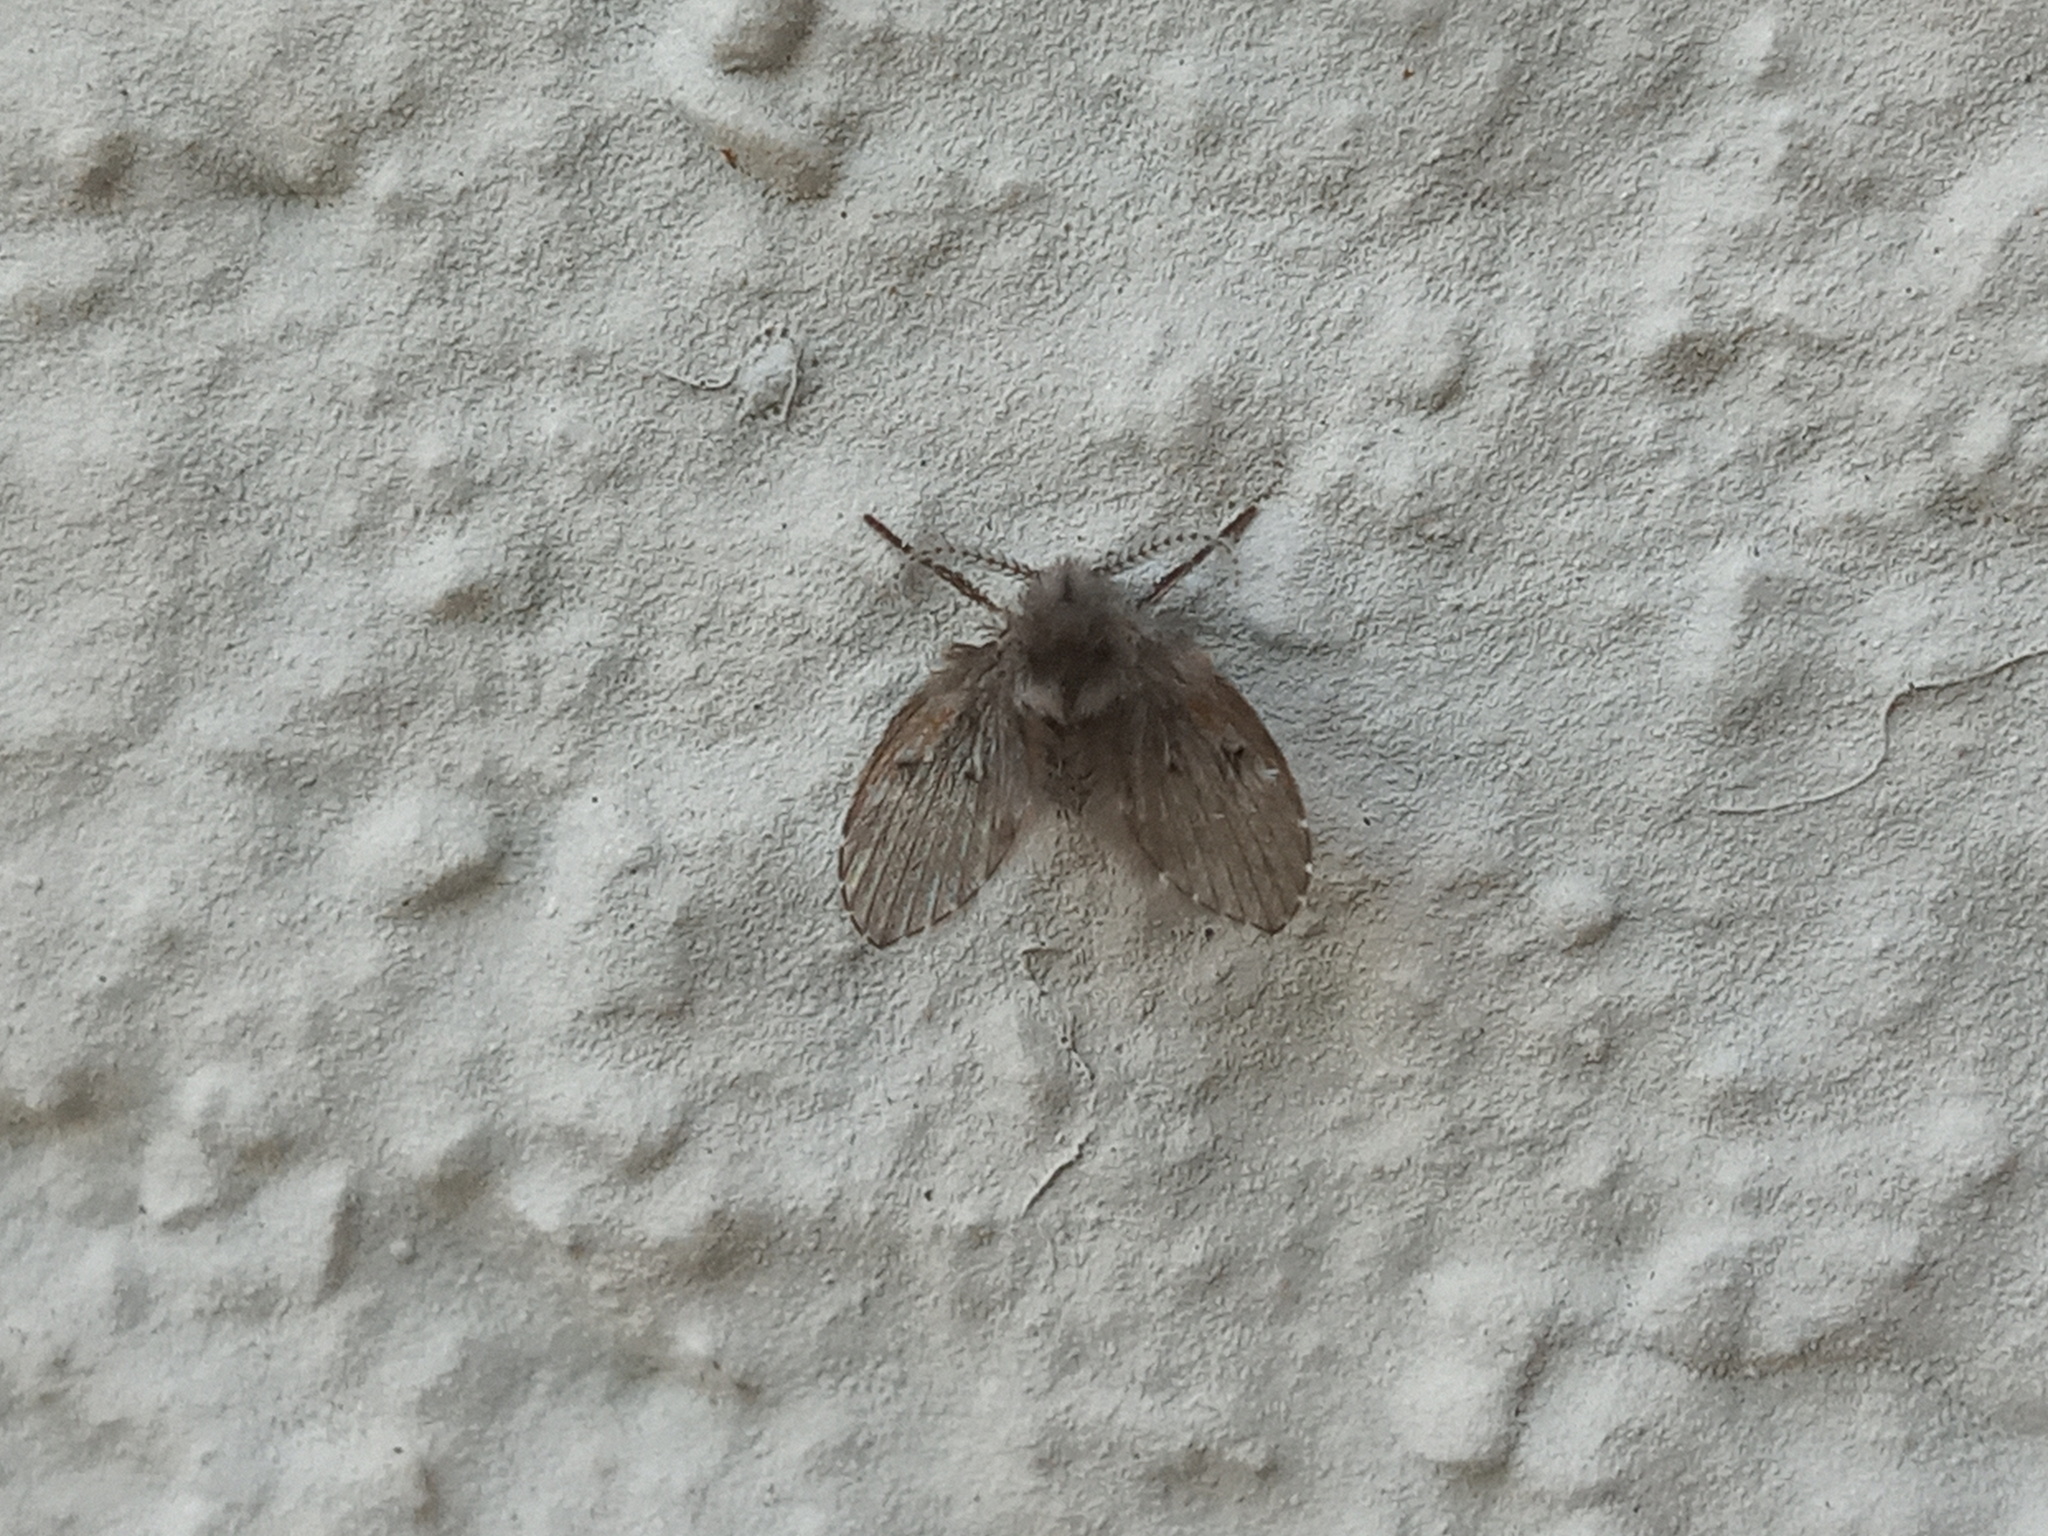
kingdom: Animalia
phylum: Arthropoda
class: Insecta
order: Diptera
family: Psychodidae
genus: Clogmia
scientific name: Clogmia albipunctatus
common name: White-spotted moth fly
